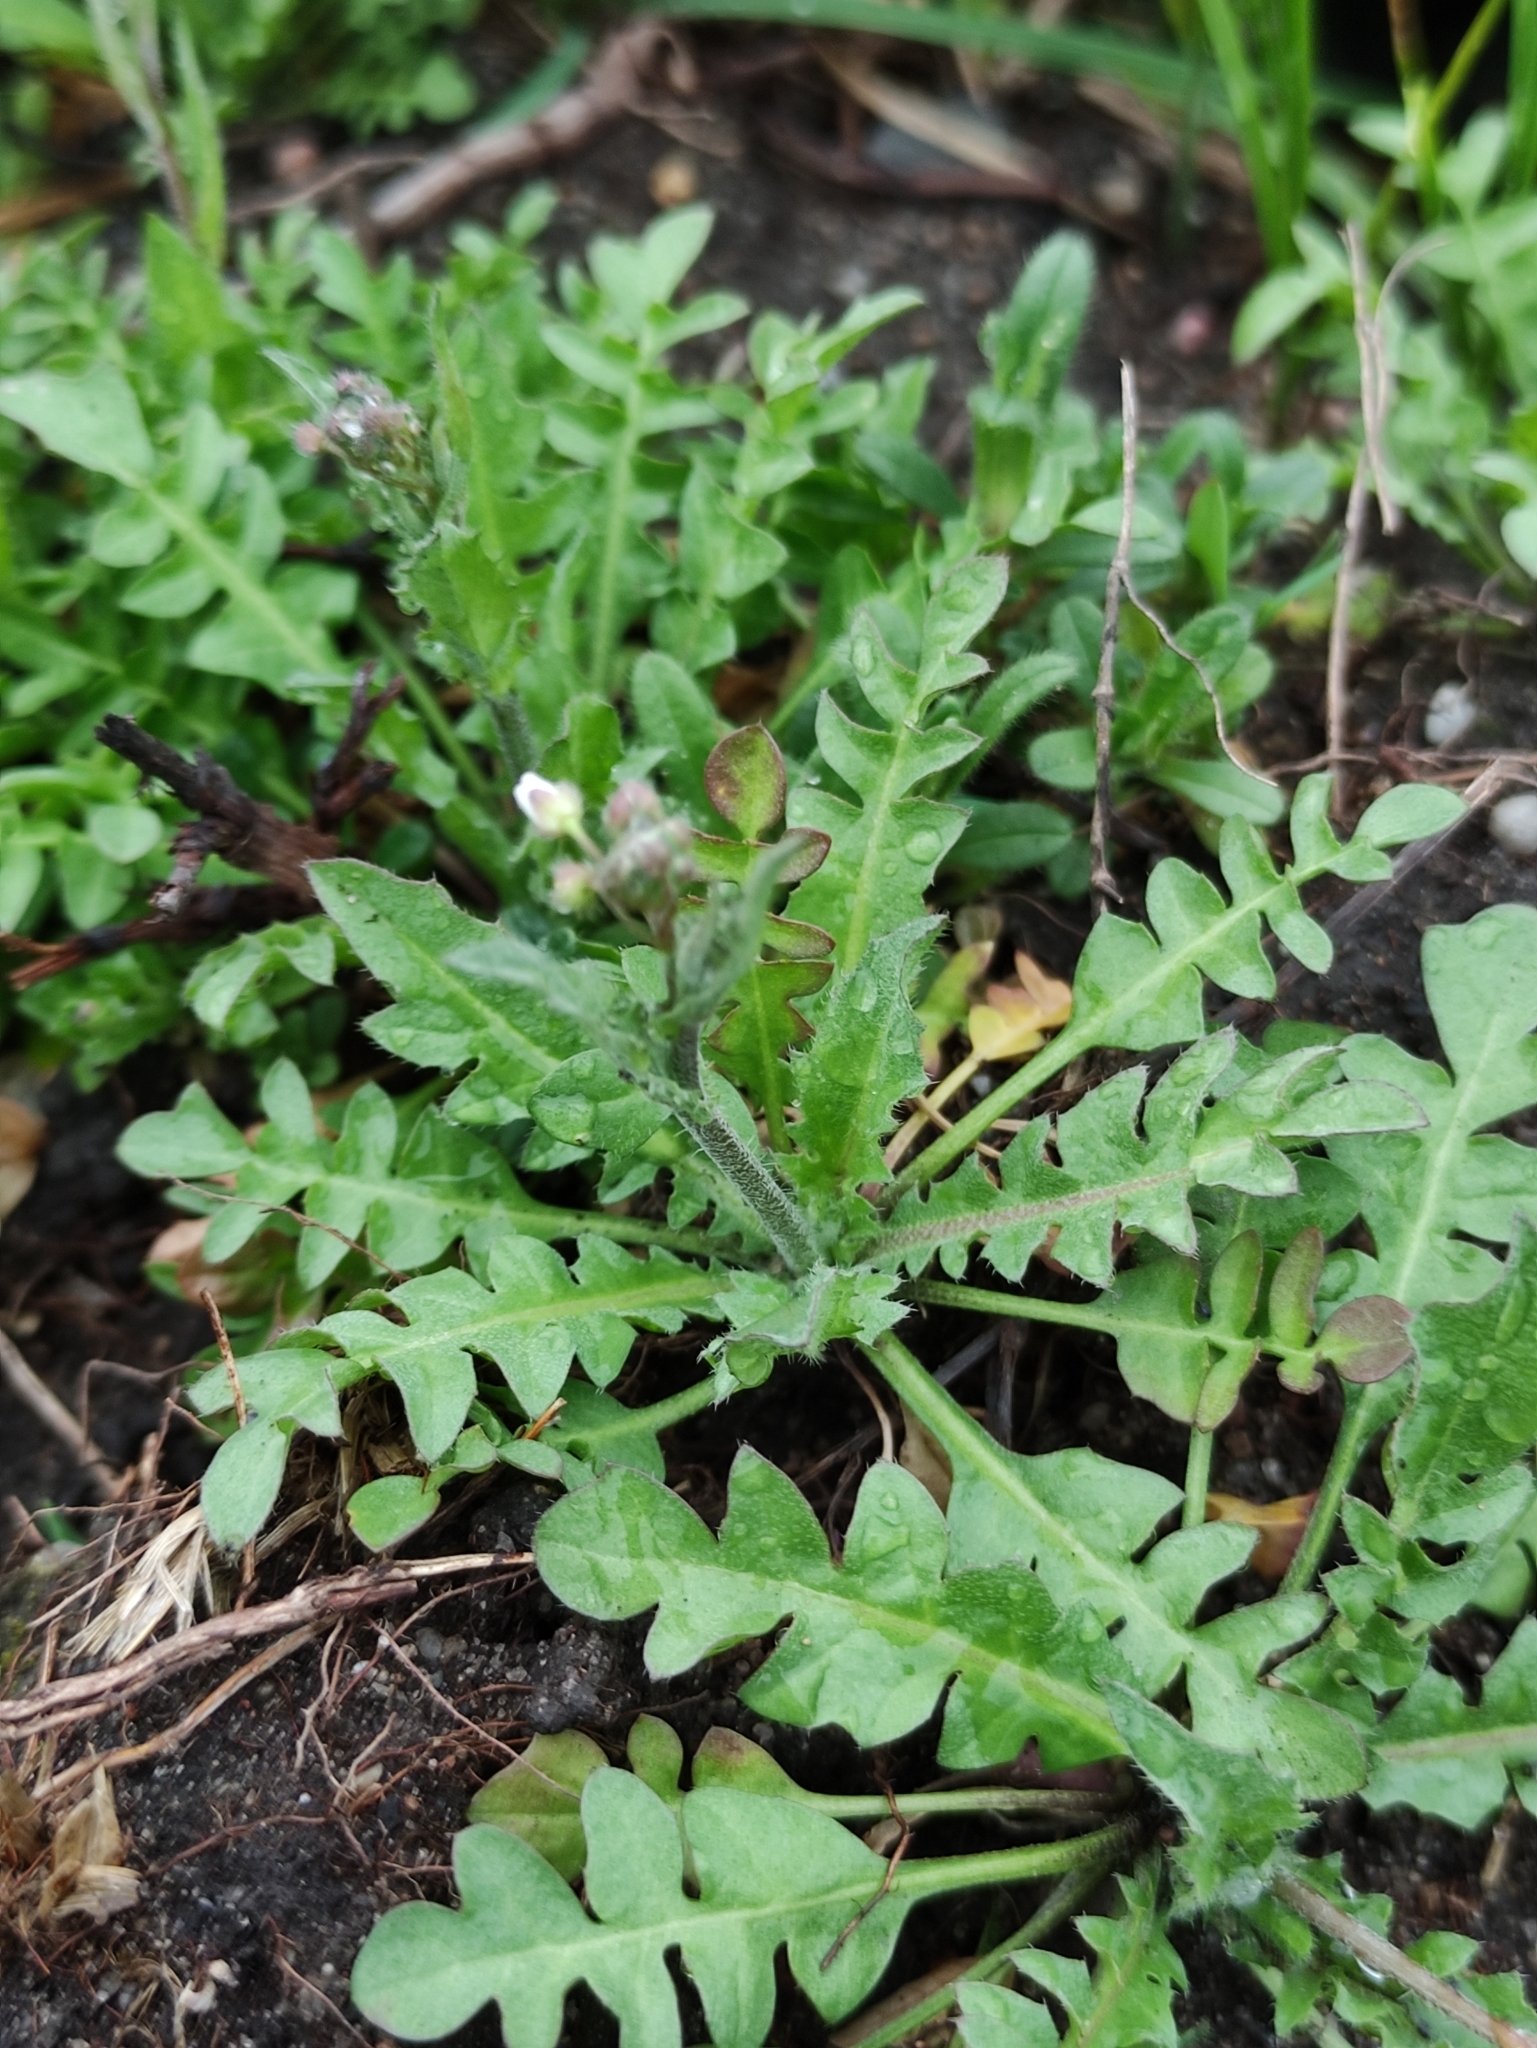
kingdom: Plantae
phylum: Tracheophyta
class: Magnoliopsida
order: Brassicales
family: Brassicaceae
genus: Capsella
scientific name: Capsella bursa-pastoris
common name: Shepherd's purse
